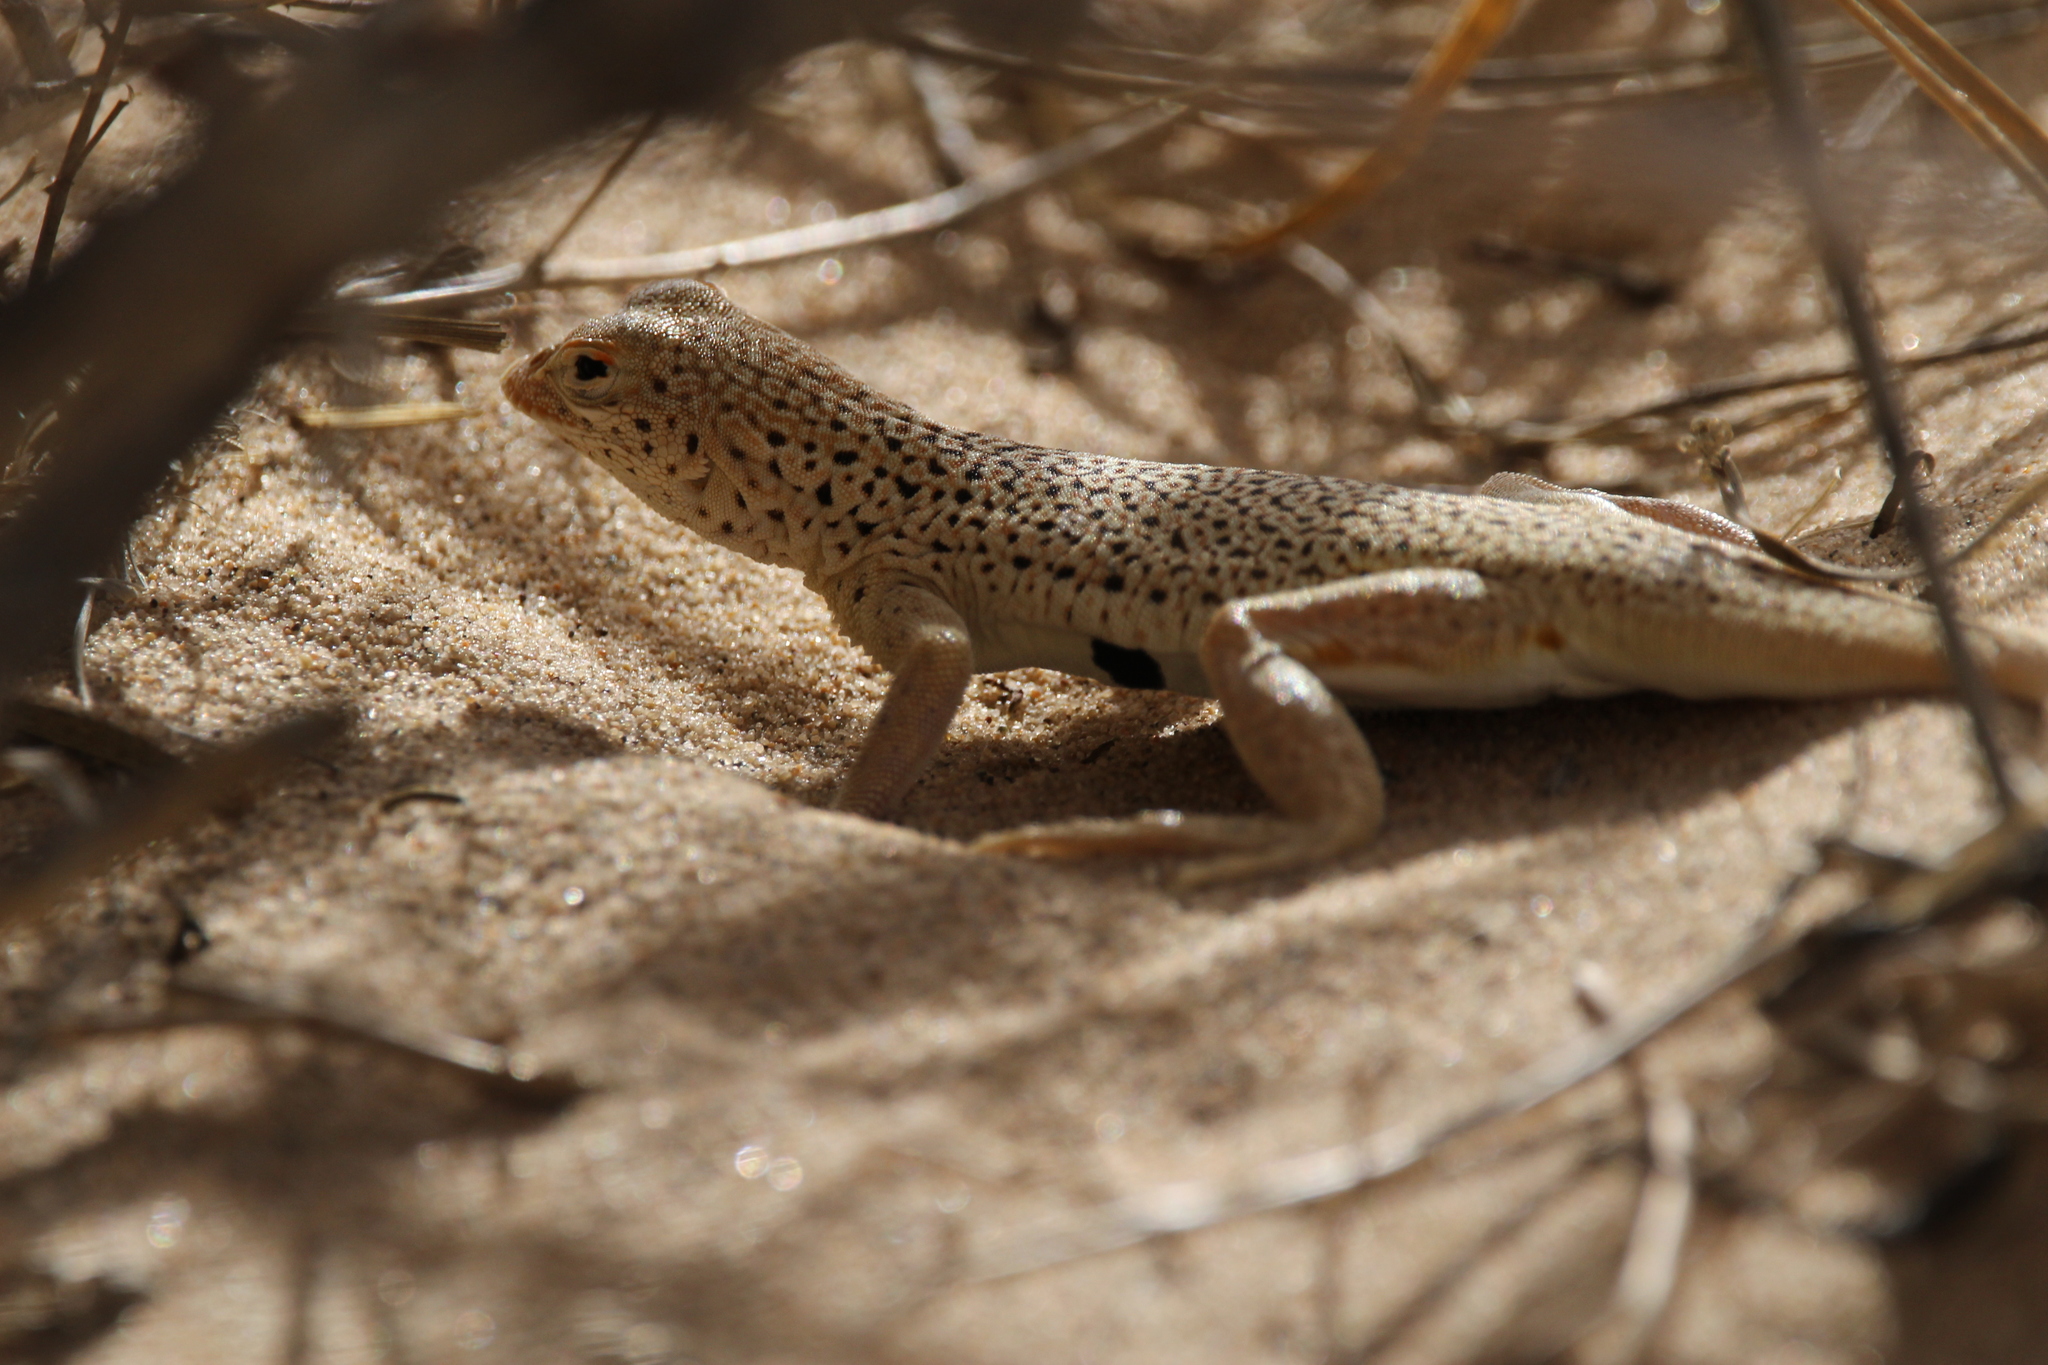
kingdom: Animalia
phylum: Chordata
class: Squamata
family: Phrynosomatidae
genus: Uma
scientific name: Uma scoparia
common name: Mojave fringe-toed lizard
